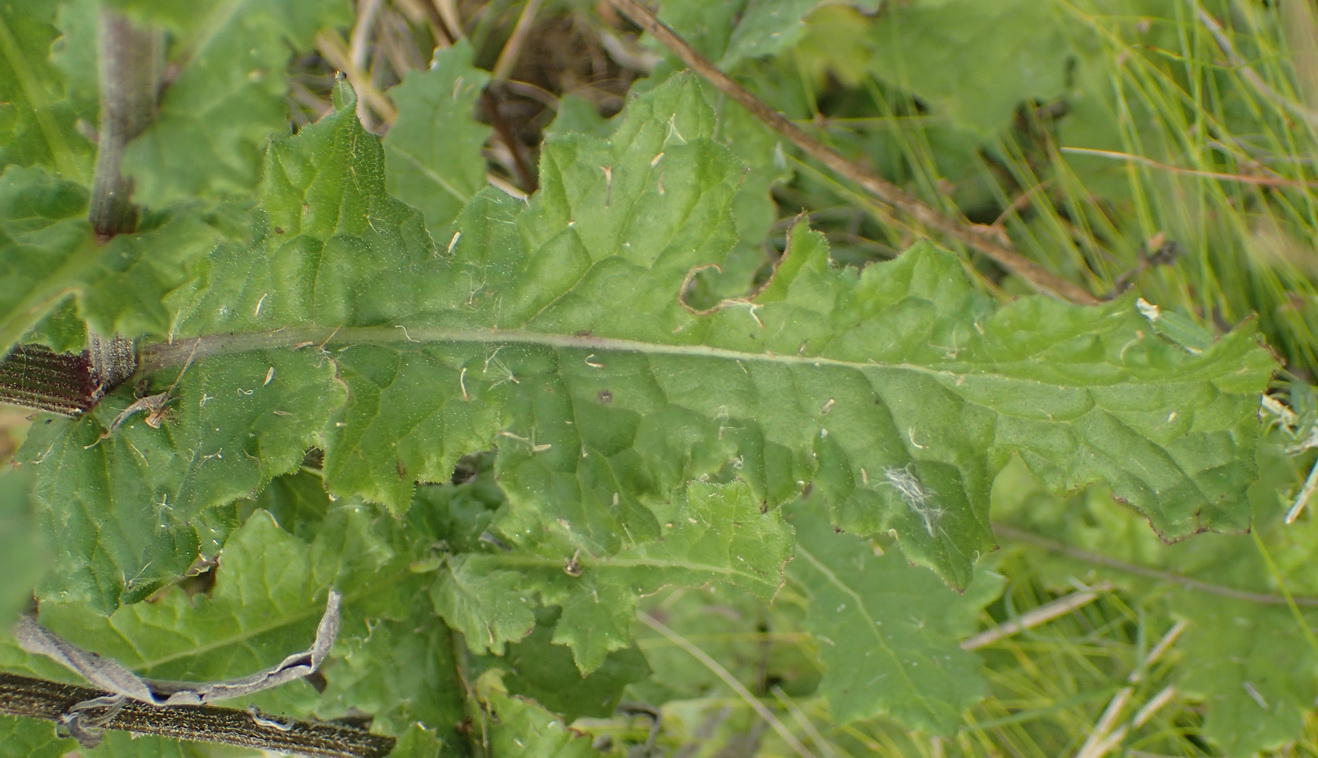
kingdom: Plantae
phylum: Tracheophyta
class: Magnoliopsida
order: Asterales
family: Asteraceae
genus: Senecio
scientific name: Senecio purpureus
